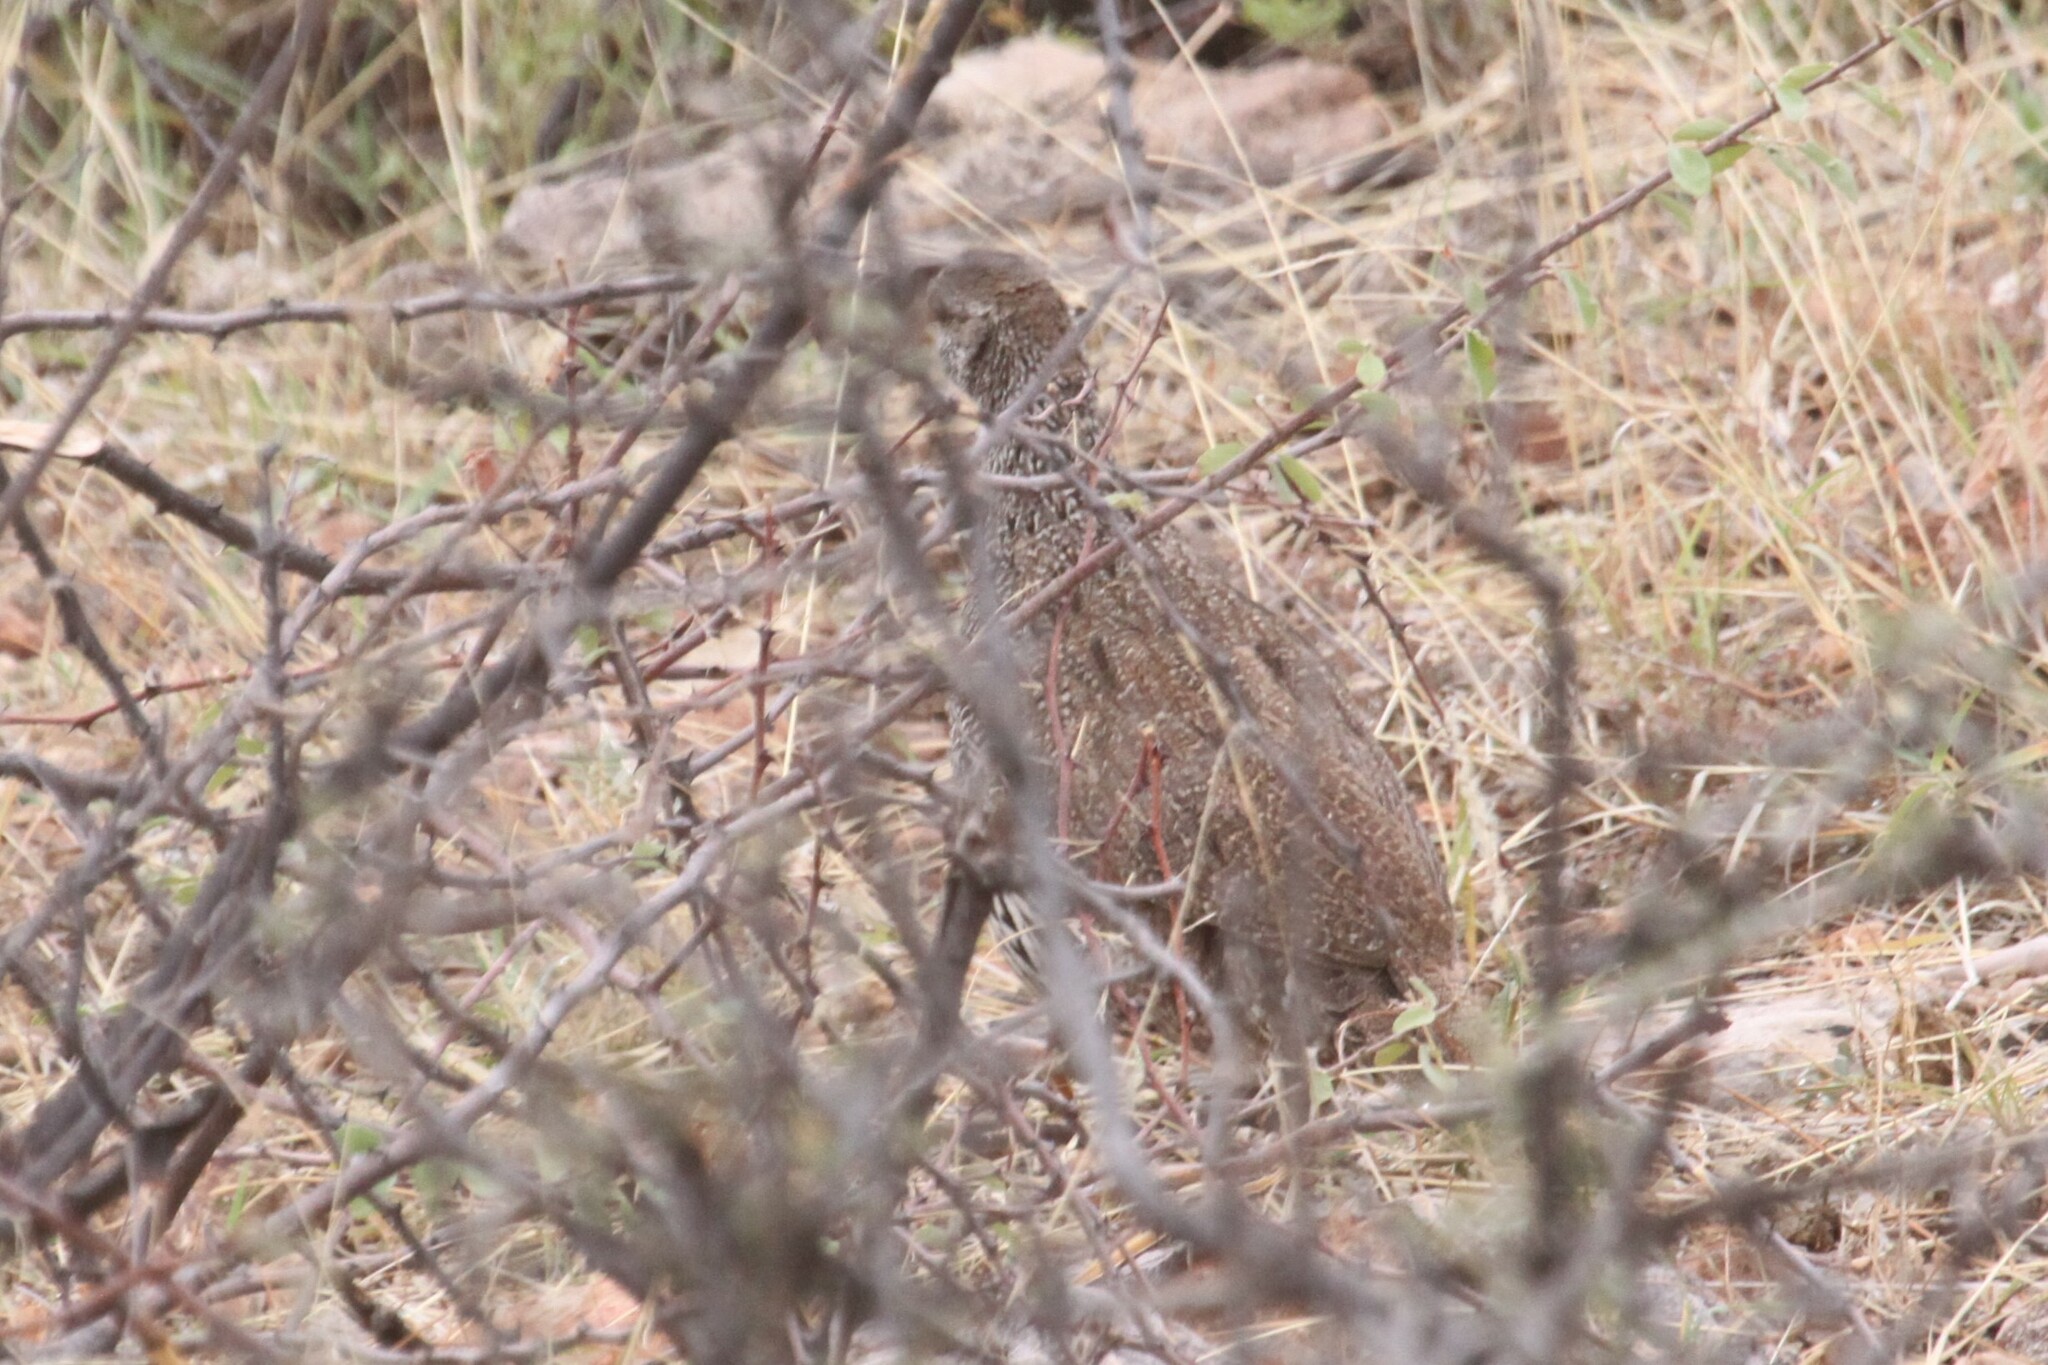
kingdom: Animalia
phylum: Chordata
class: Aves
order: Galliformes
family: Phasianidae
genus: Pternistis
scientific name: Pternistis natalensis
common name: Natal spurfowl
